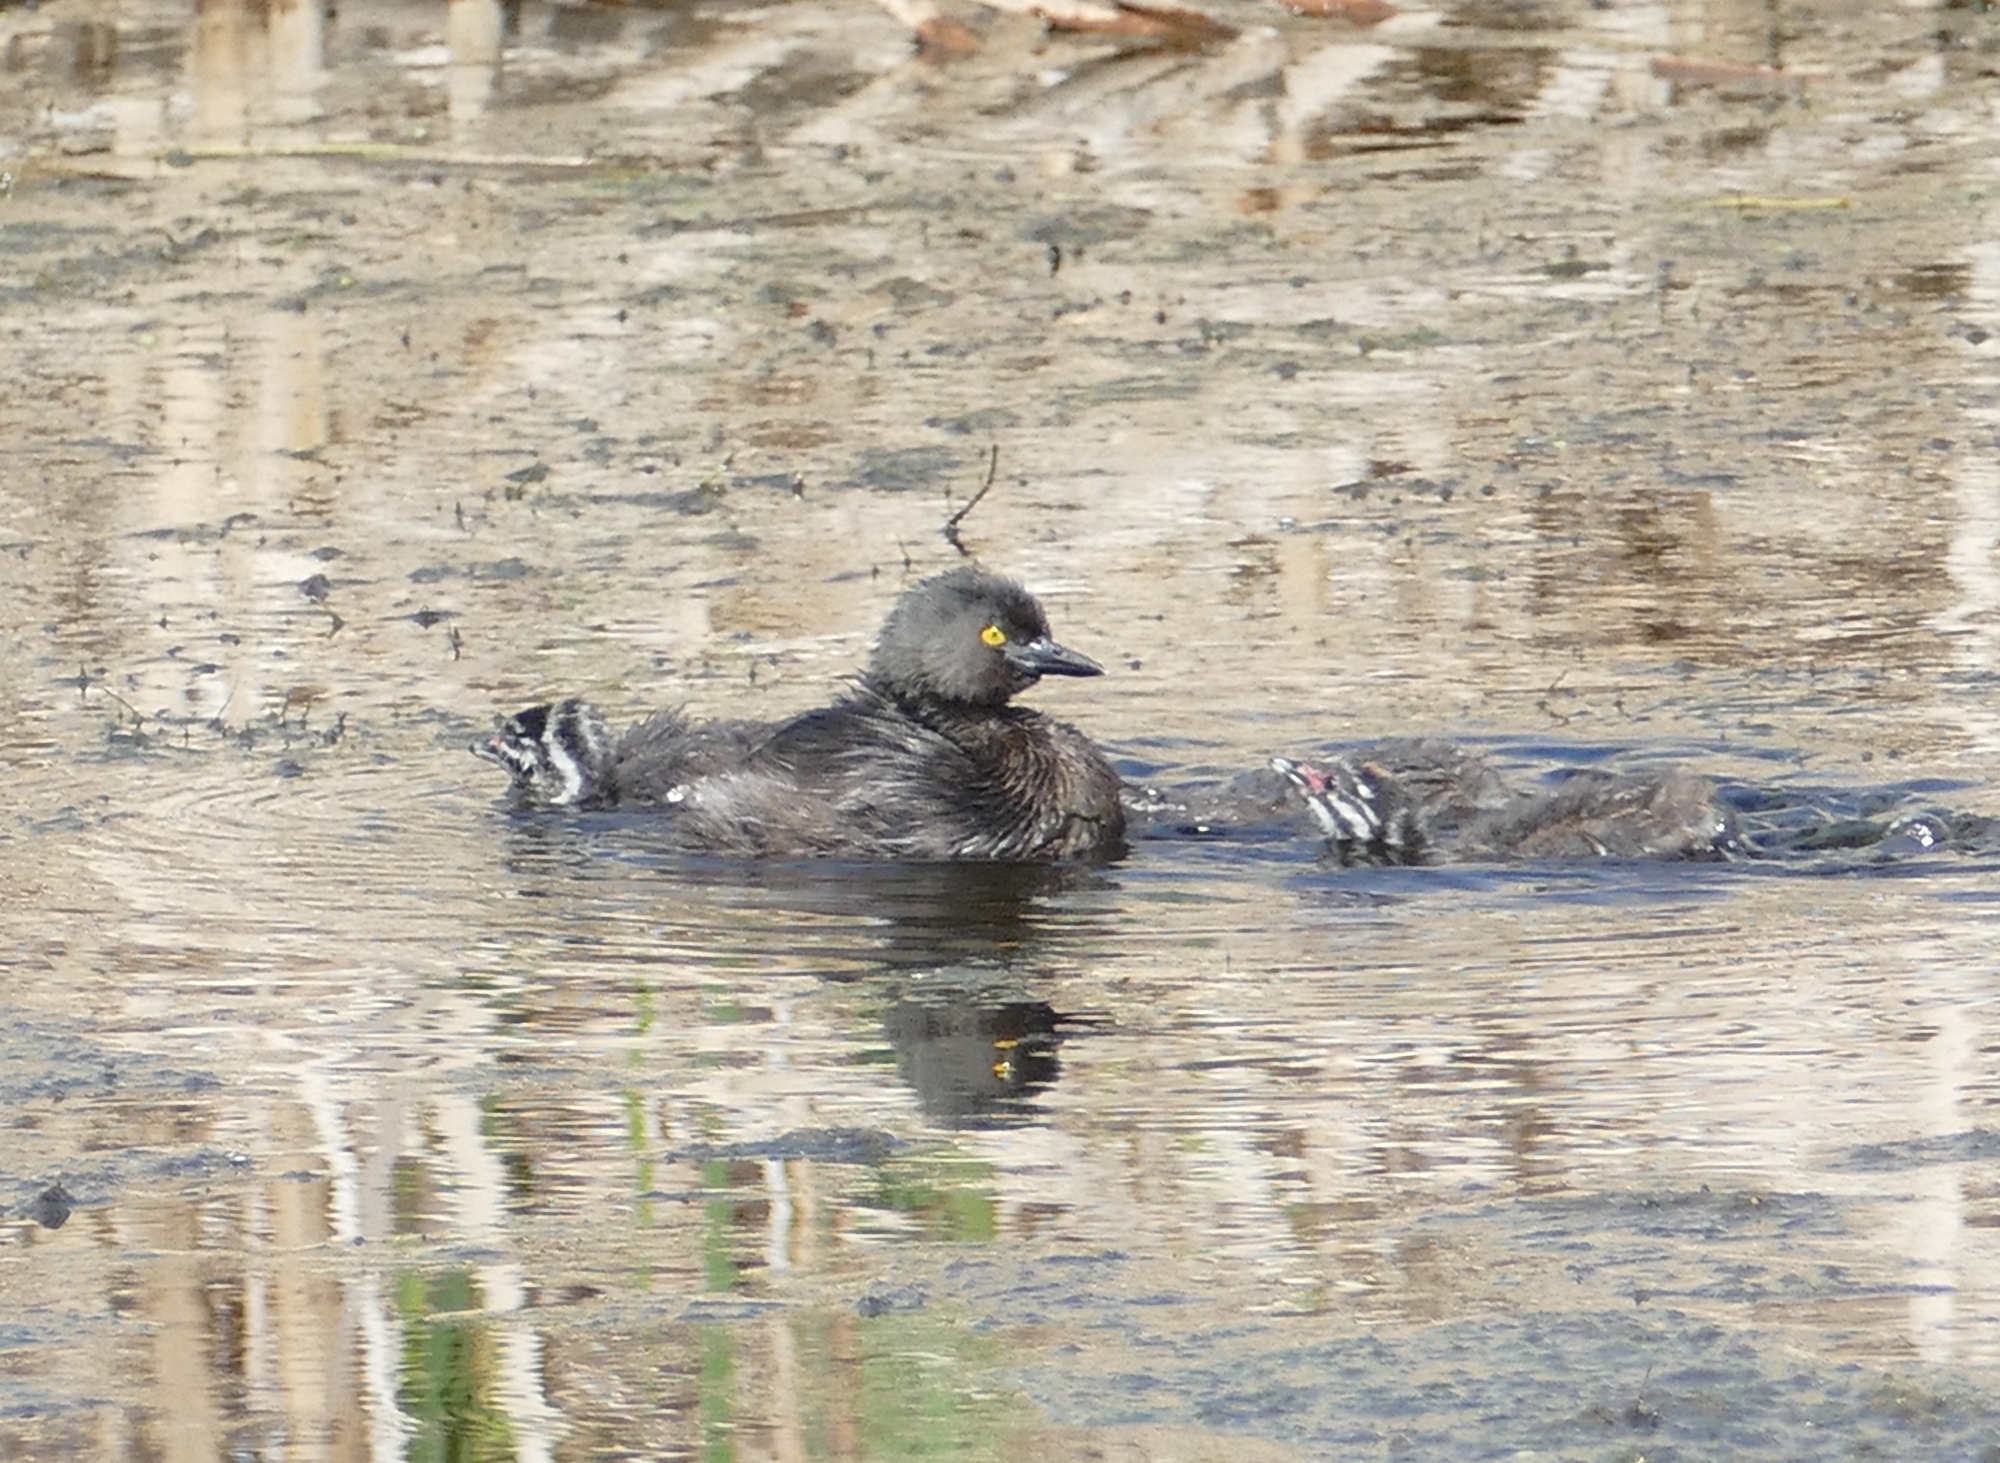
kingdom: Animalia
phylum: Chordata
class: Aves
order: Podicipediformes
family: Podicipedidae
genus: Tachybaptus
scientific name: Tachybaptus dominicus
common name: Least grebe
